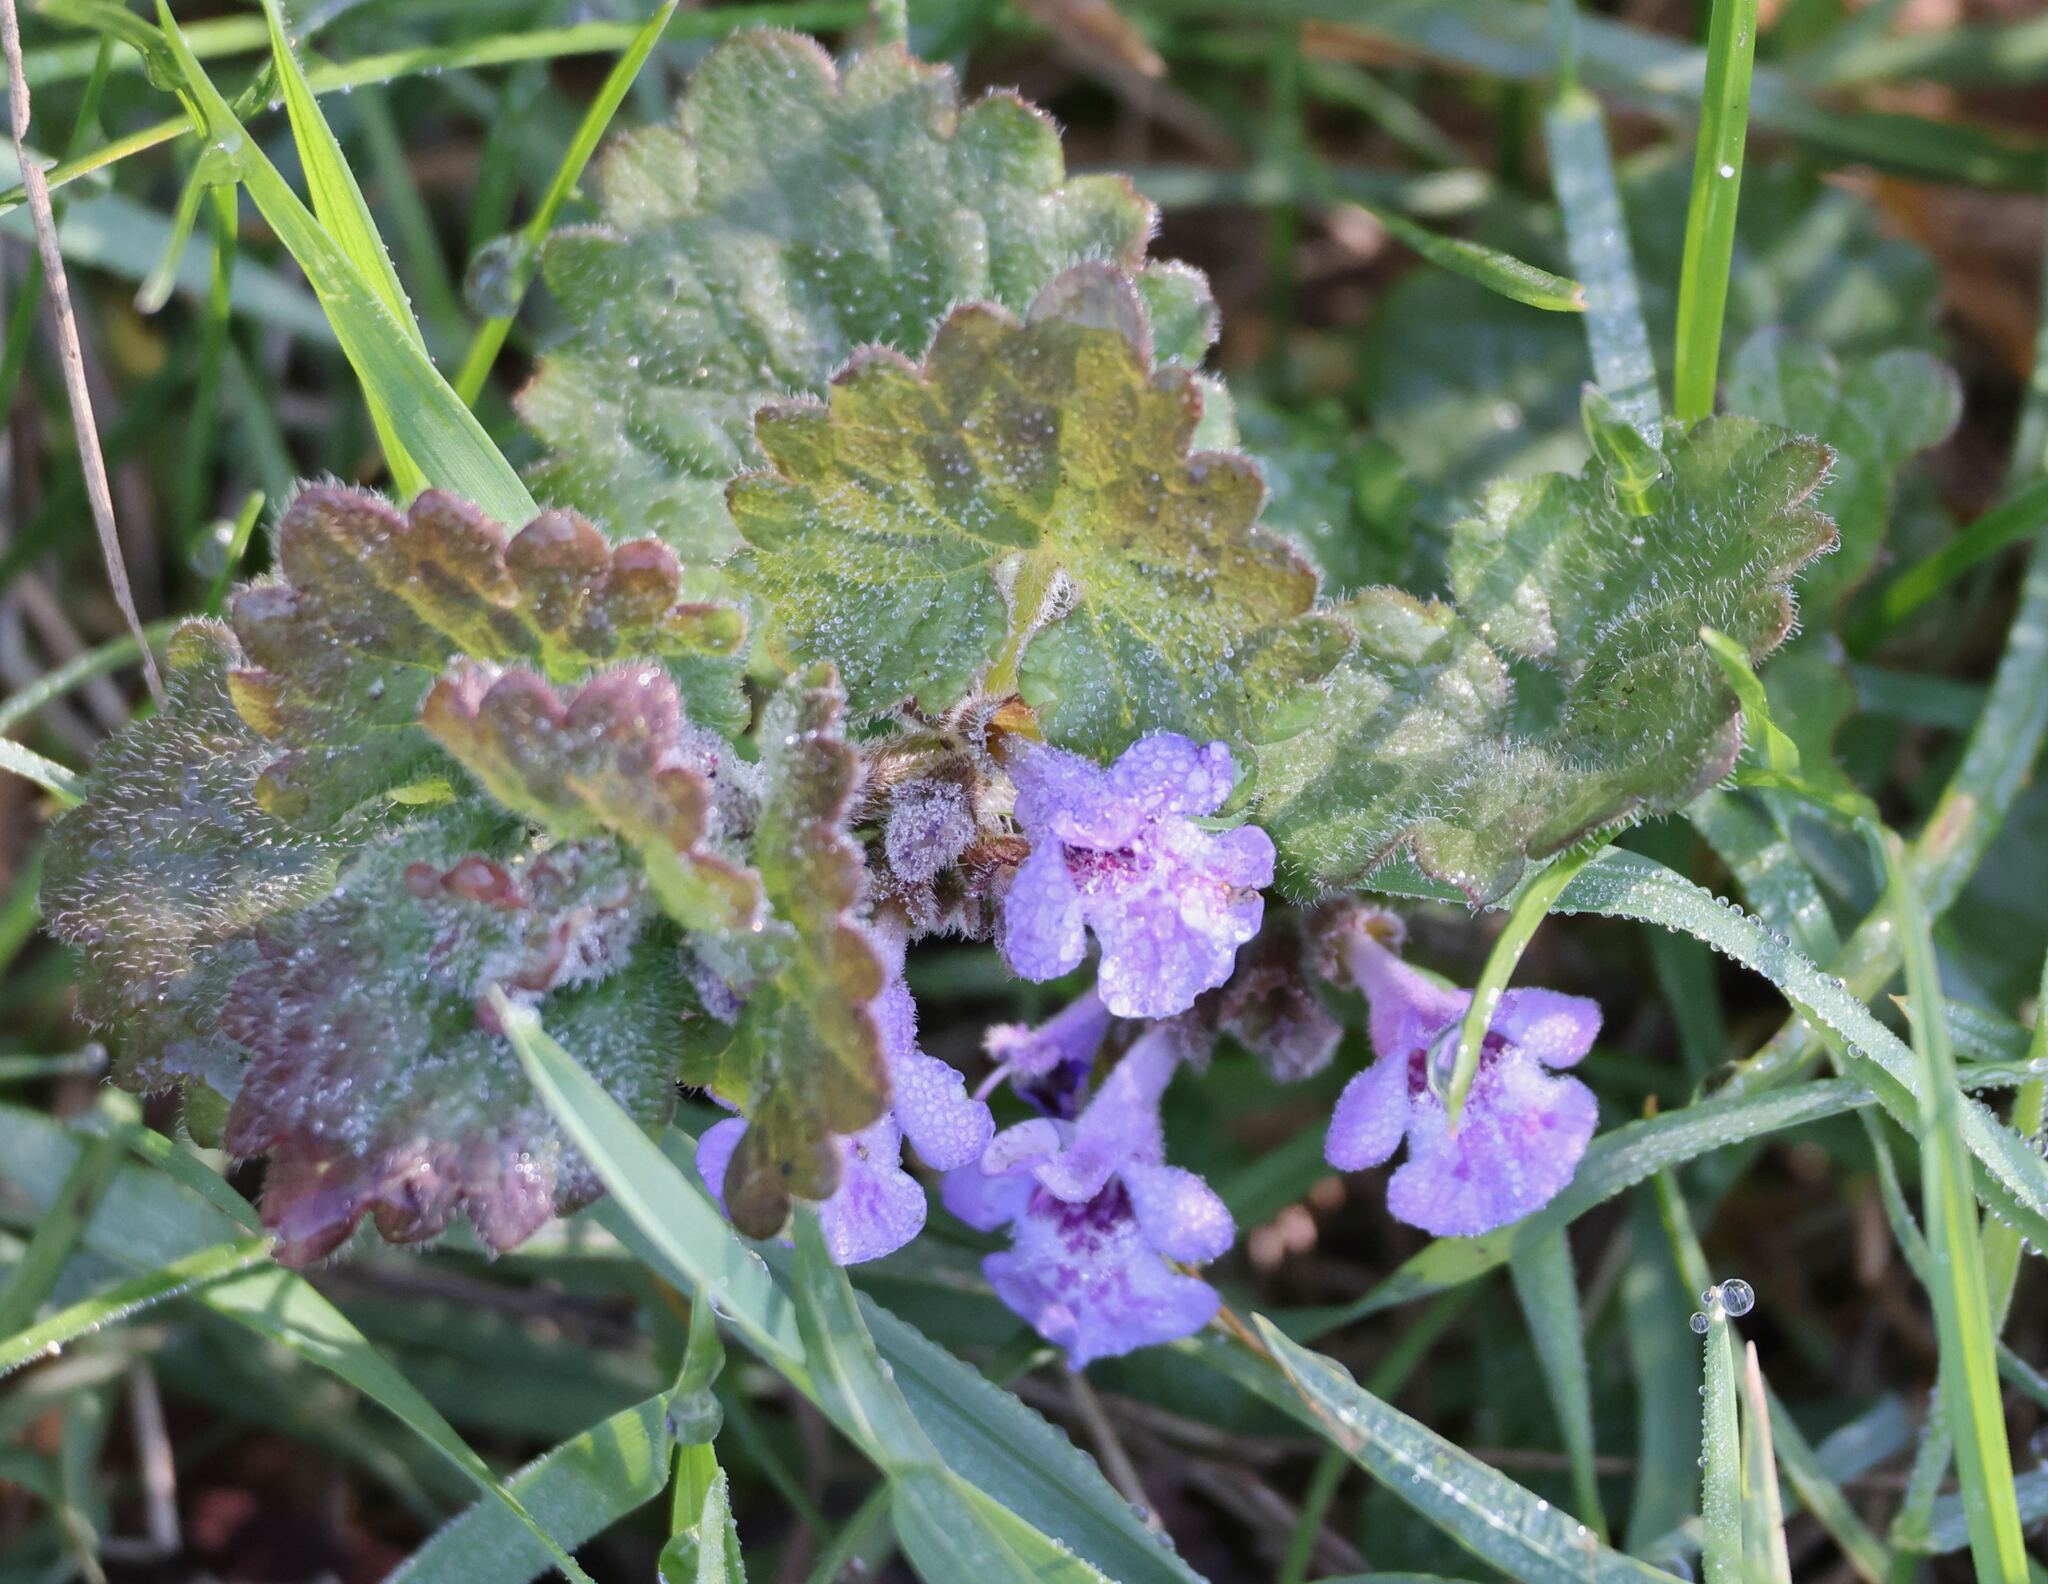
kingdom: Plantae
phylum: Tracheophyta
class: Magnoliopsida
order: Lamiales
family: Lamiaceae
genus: Glechoma
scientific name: Glechoma hederacea
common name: Ground ivy
